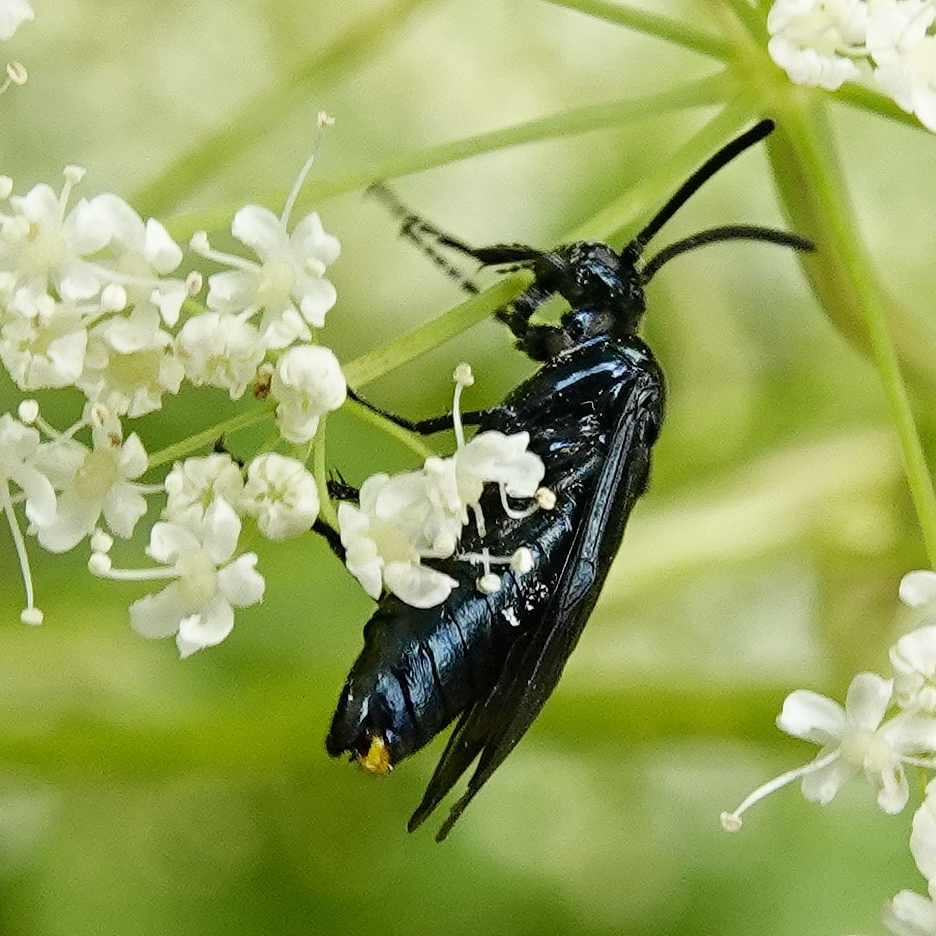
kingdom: Animalia
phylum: Arthropoda
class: Insecta
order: Hymenoptera
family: Argidae
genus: Arge
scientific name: Arge berberidis
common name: Berberis sawfly
